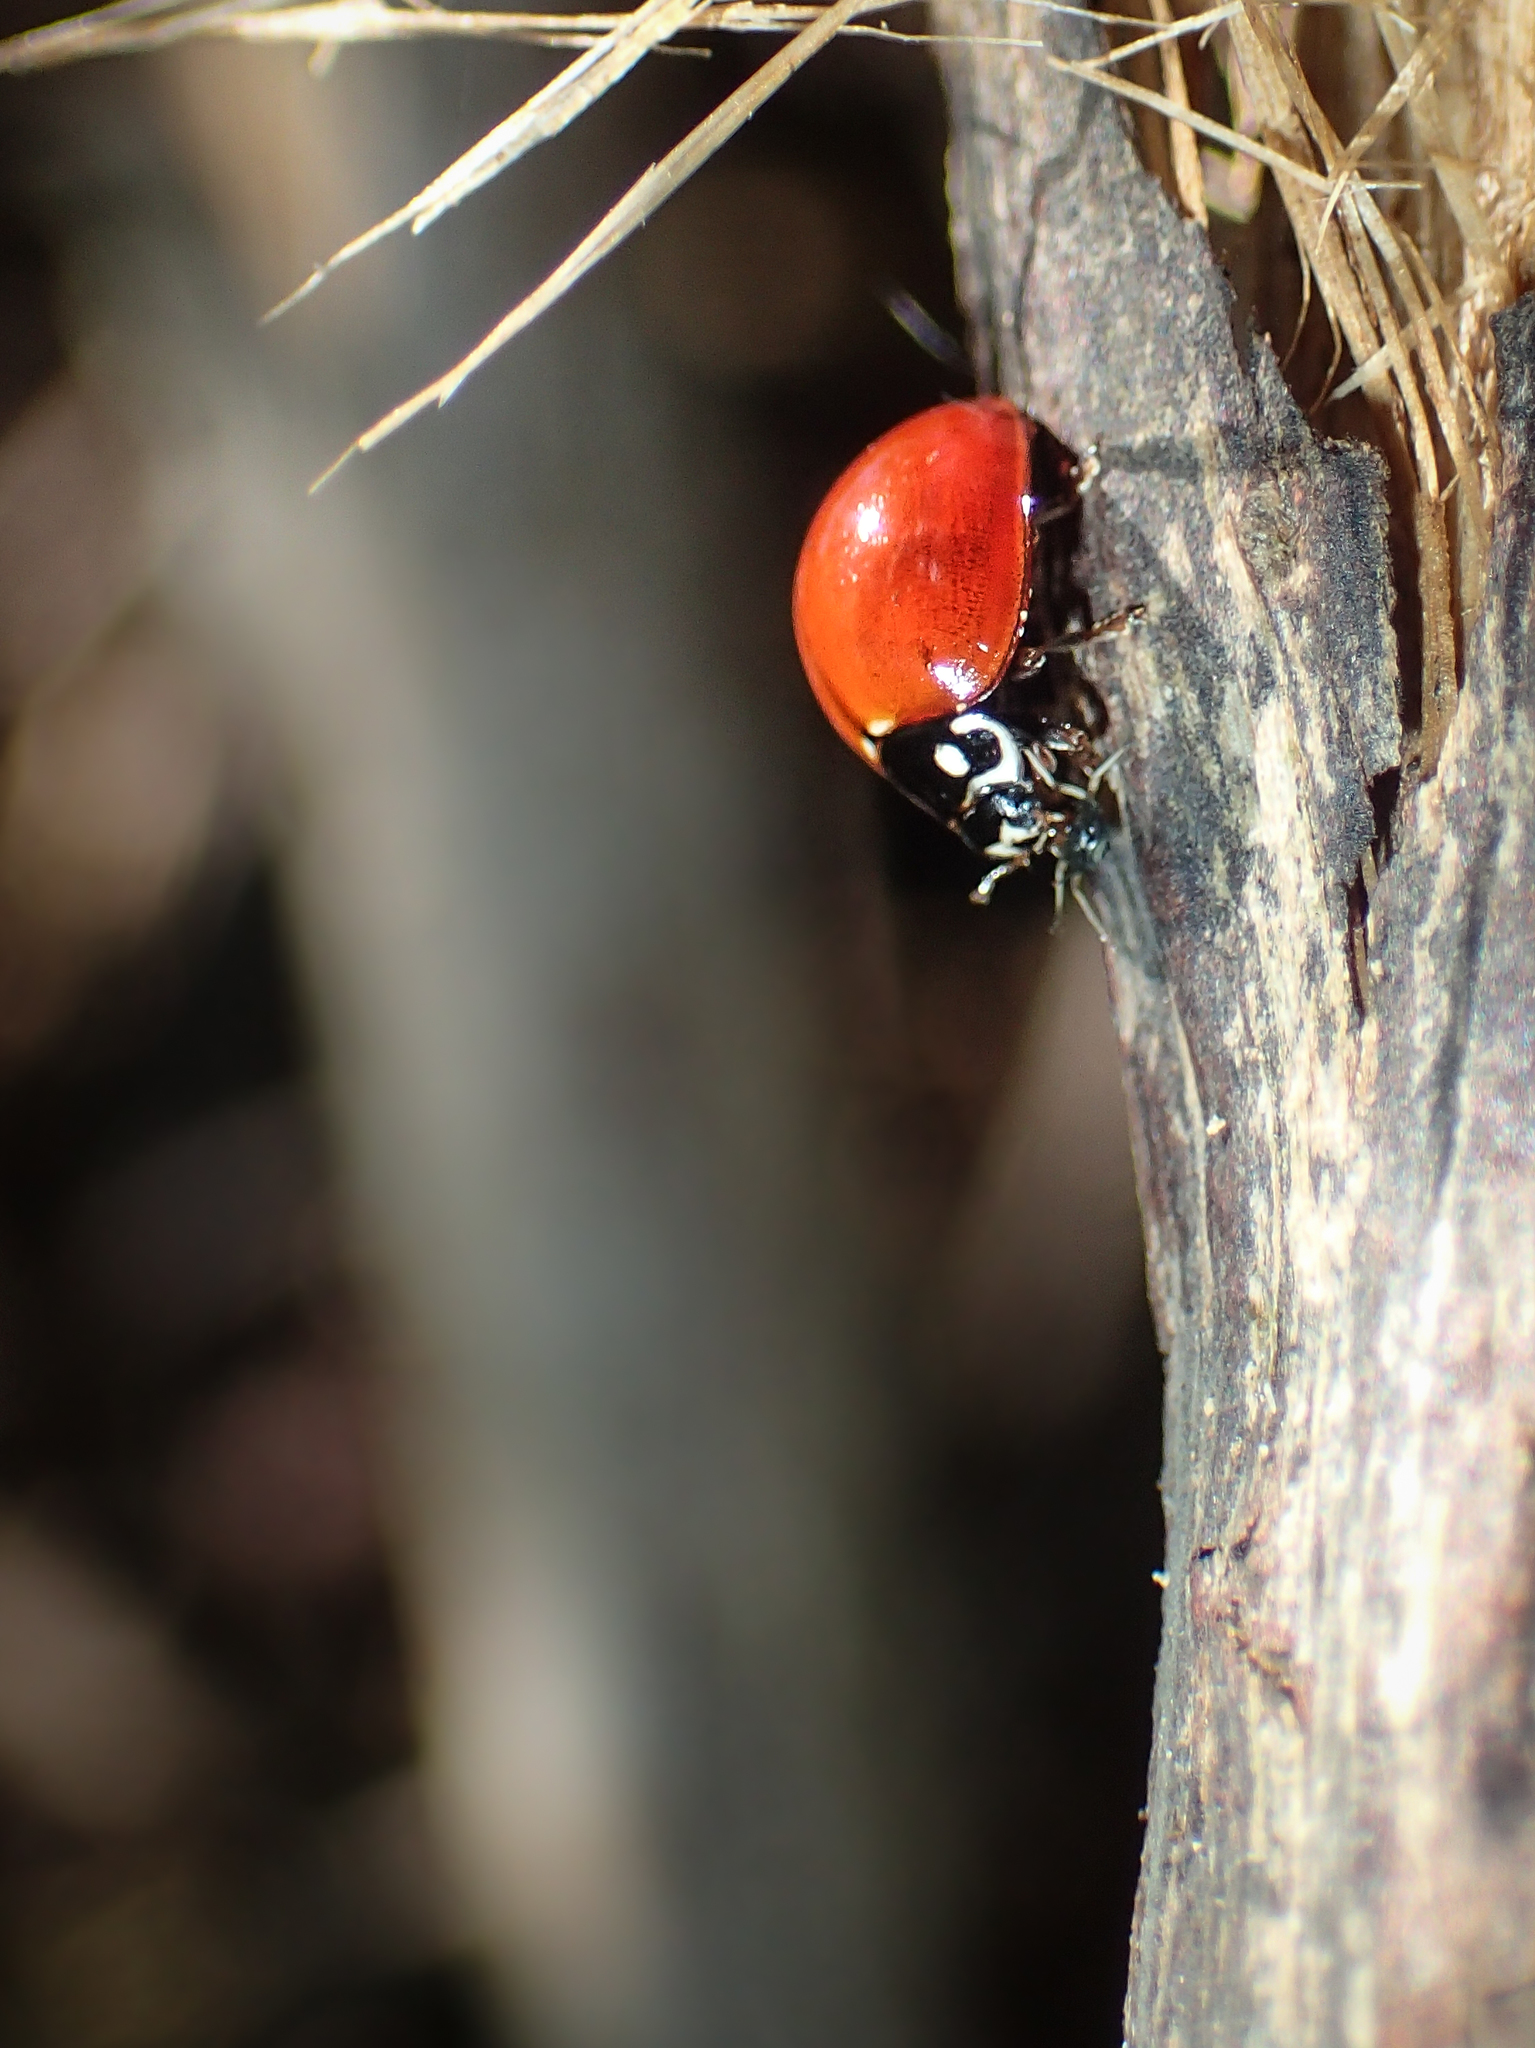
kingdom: Animalia
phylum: Arthropoda
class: Insecta
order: Coleoptera
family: Coccinellidae
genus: Cycloneda
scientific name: Cycloneda sanguinea
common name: Ladybird beetle
